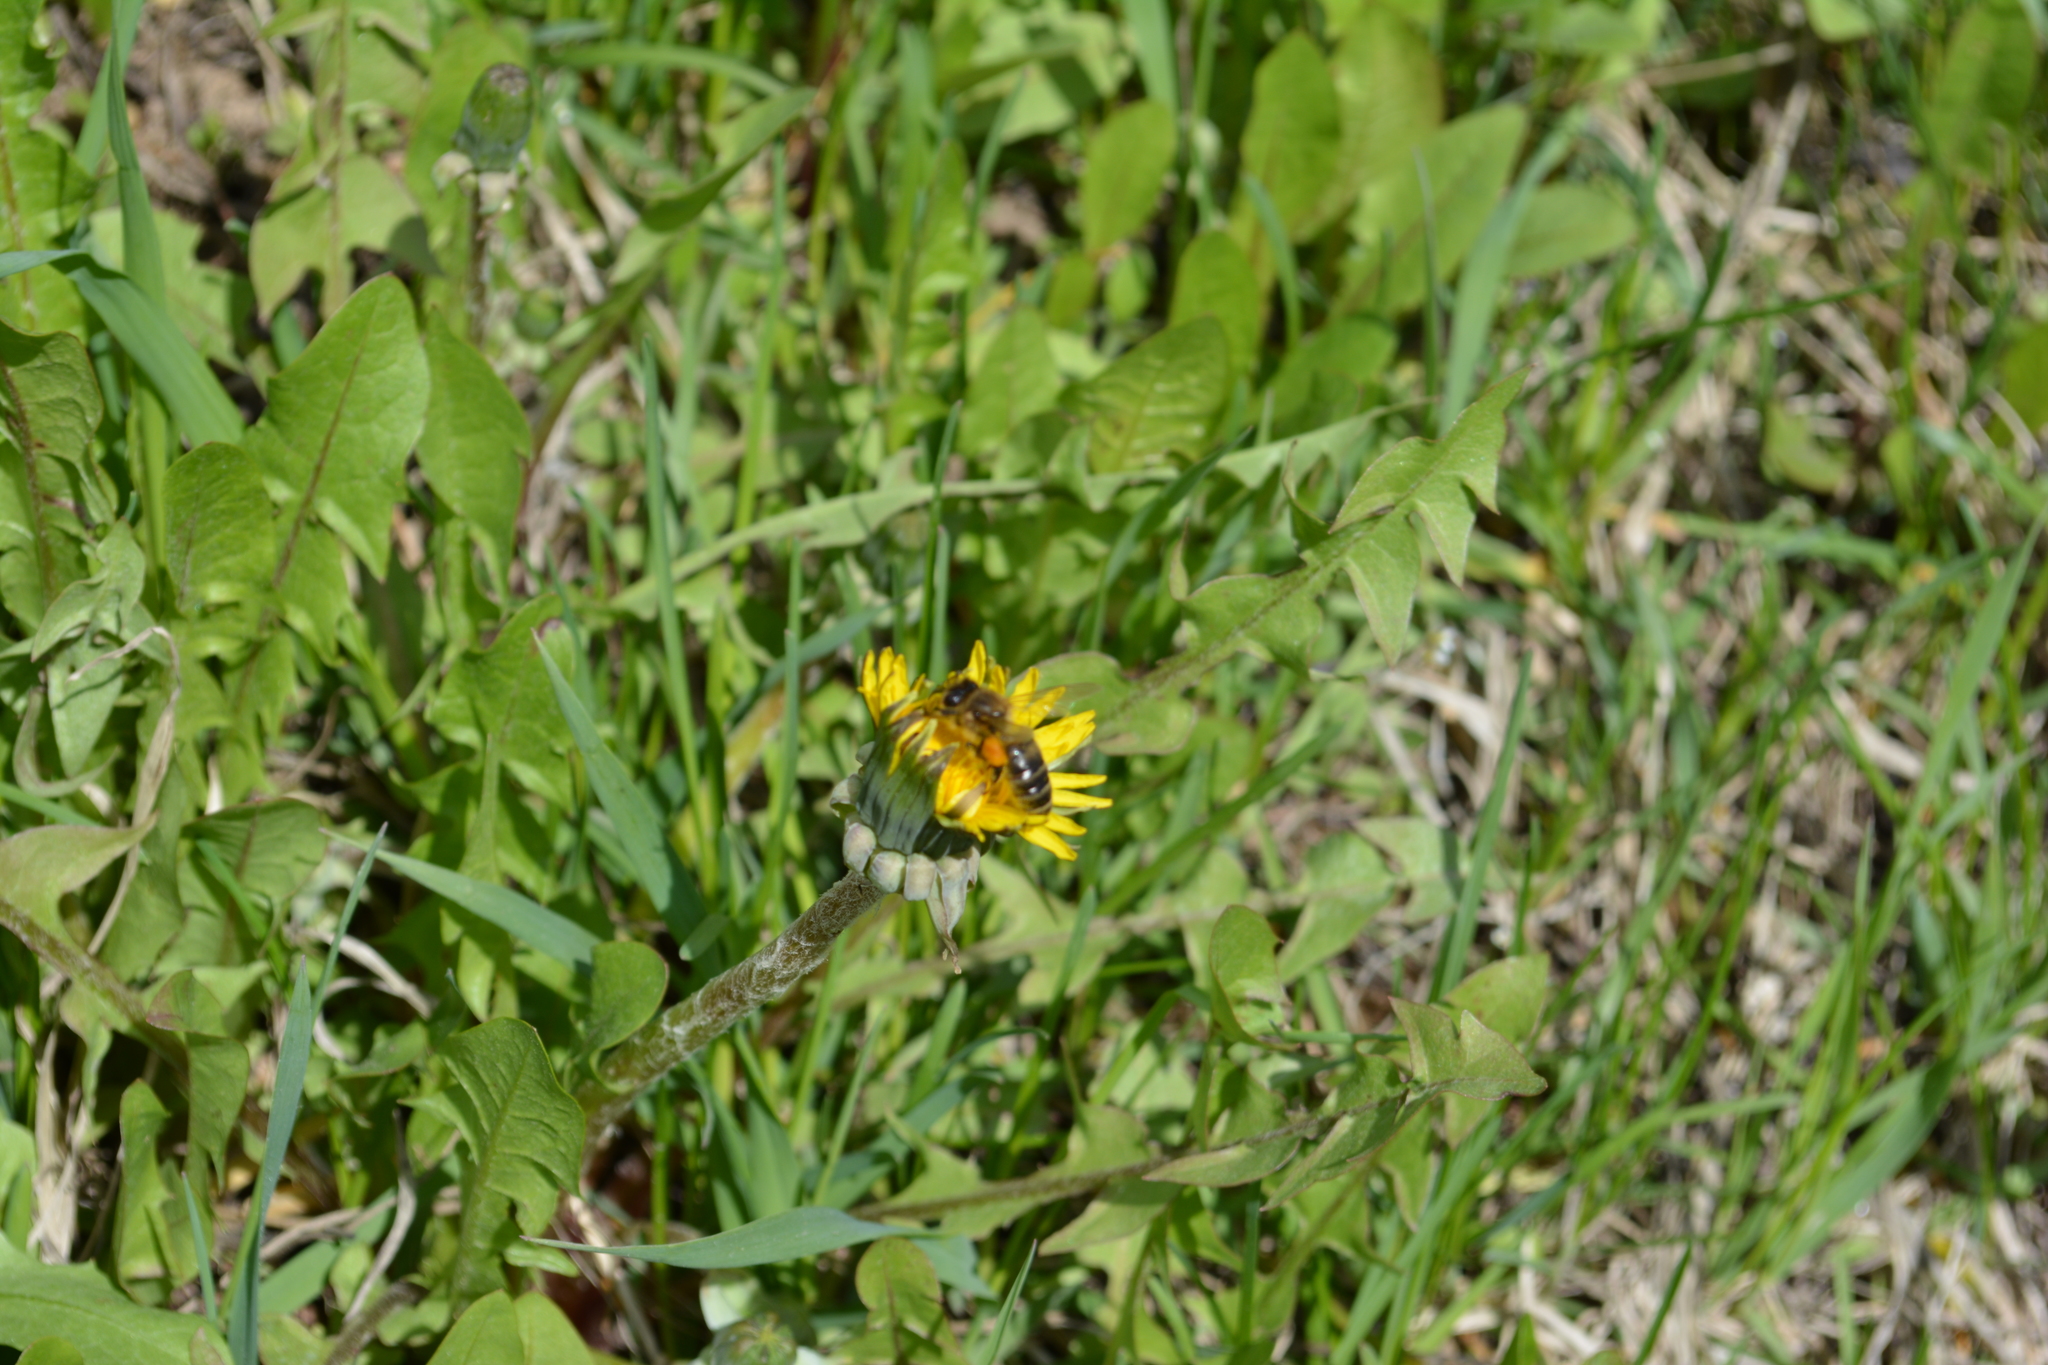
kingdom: Animalia
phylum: Arthropoda
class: Insecta
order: Hymenoptera
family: Apidae
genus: Apis
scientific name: Apis mellifera
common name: Honey bee
